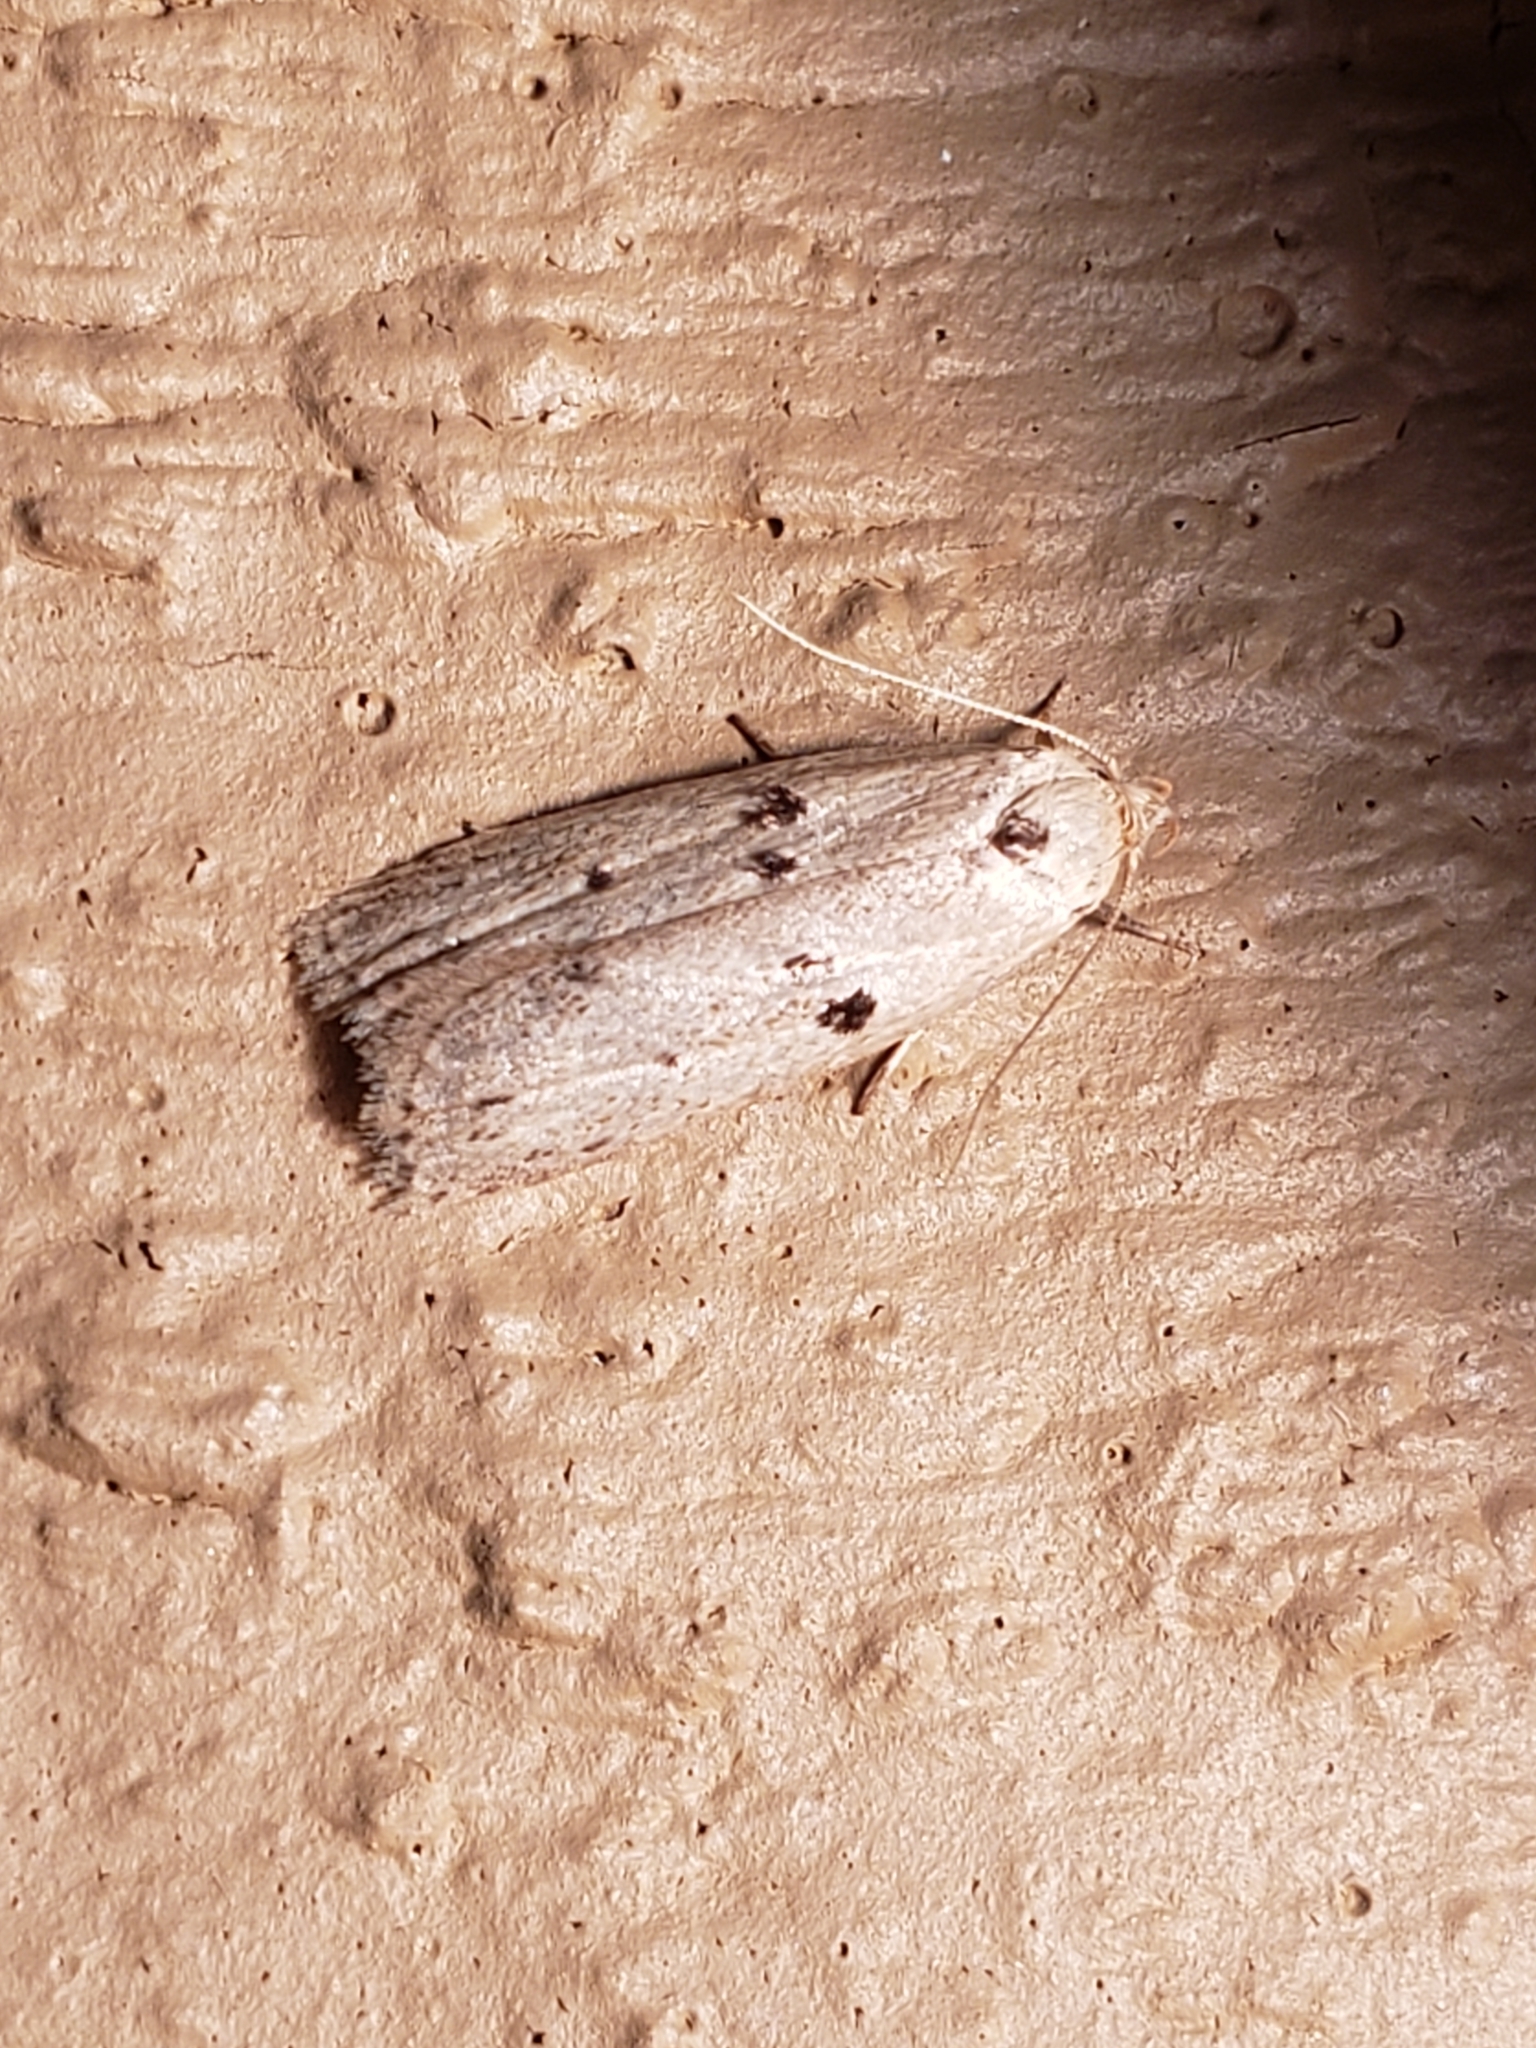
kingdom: Animalia
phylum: Arthropoda
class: Insecta
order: Lepidoptera
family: Peleopodidae
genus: Scythropiodes
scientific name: Scythropiodes issikii
